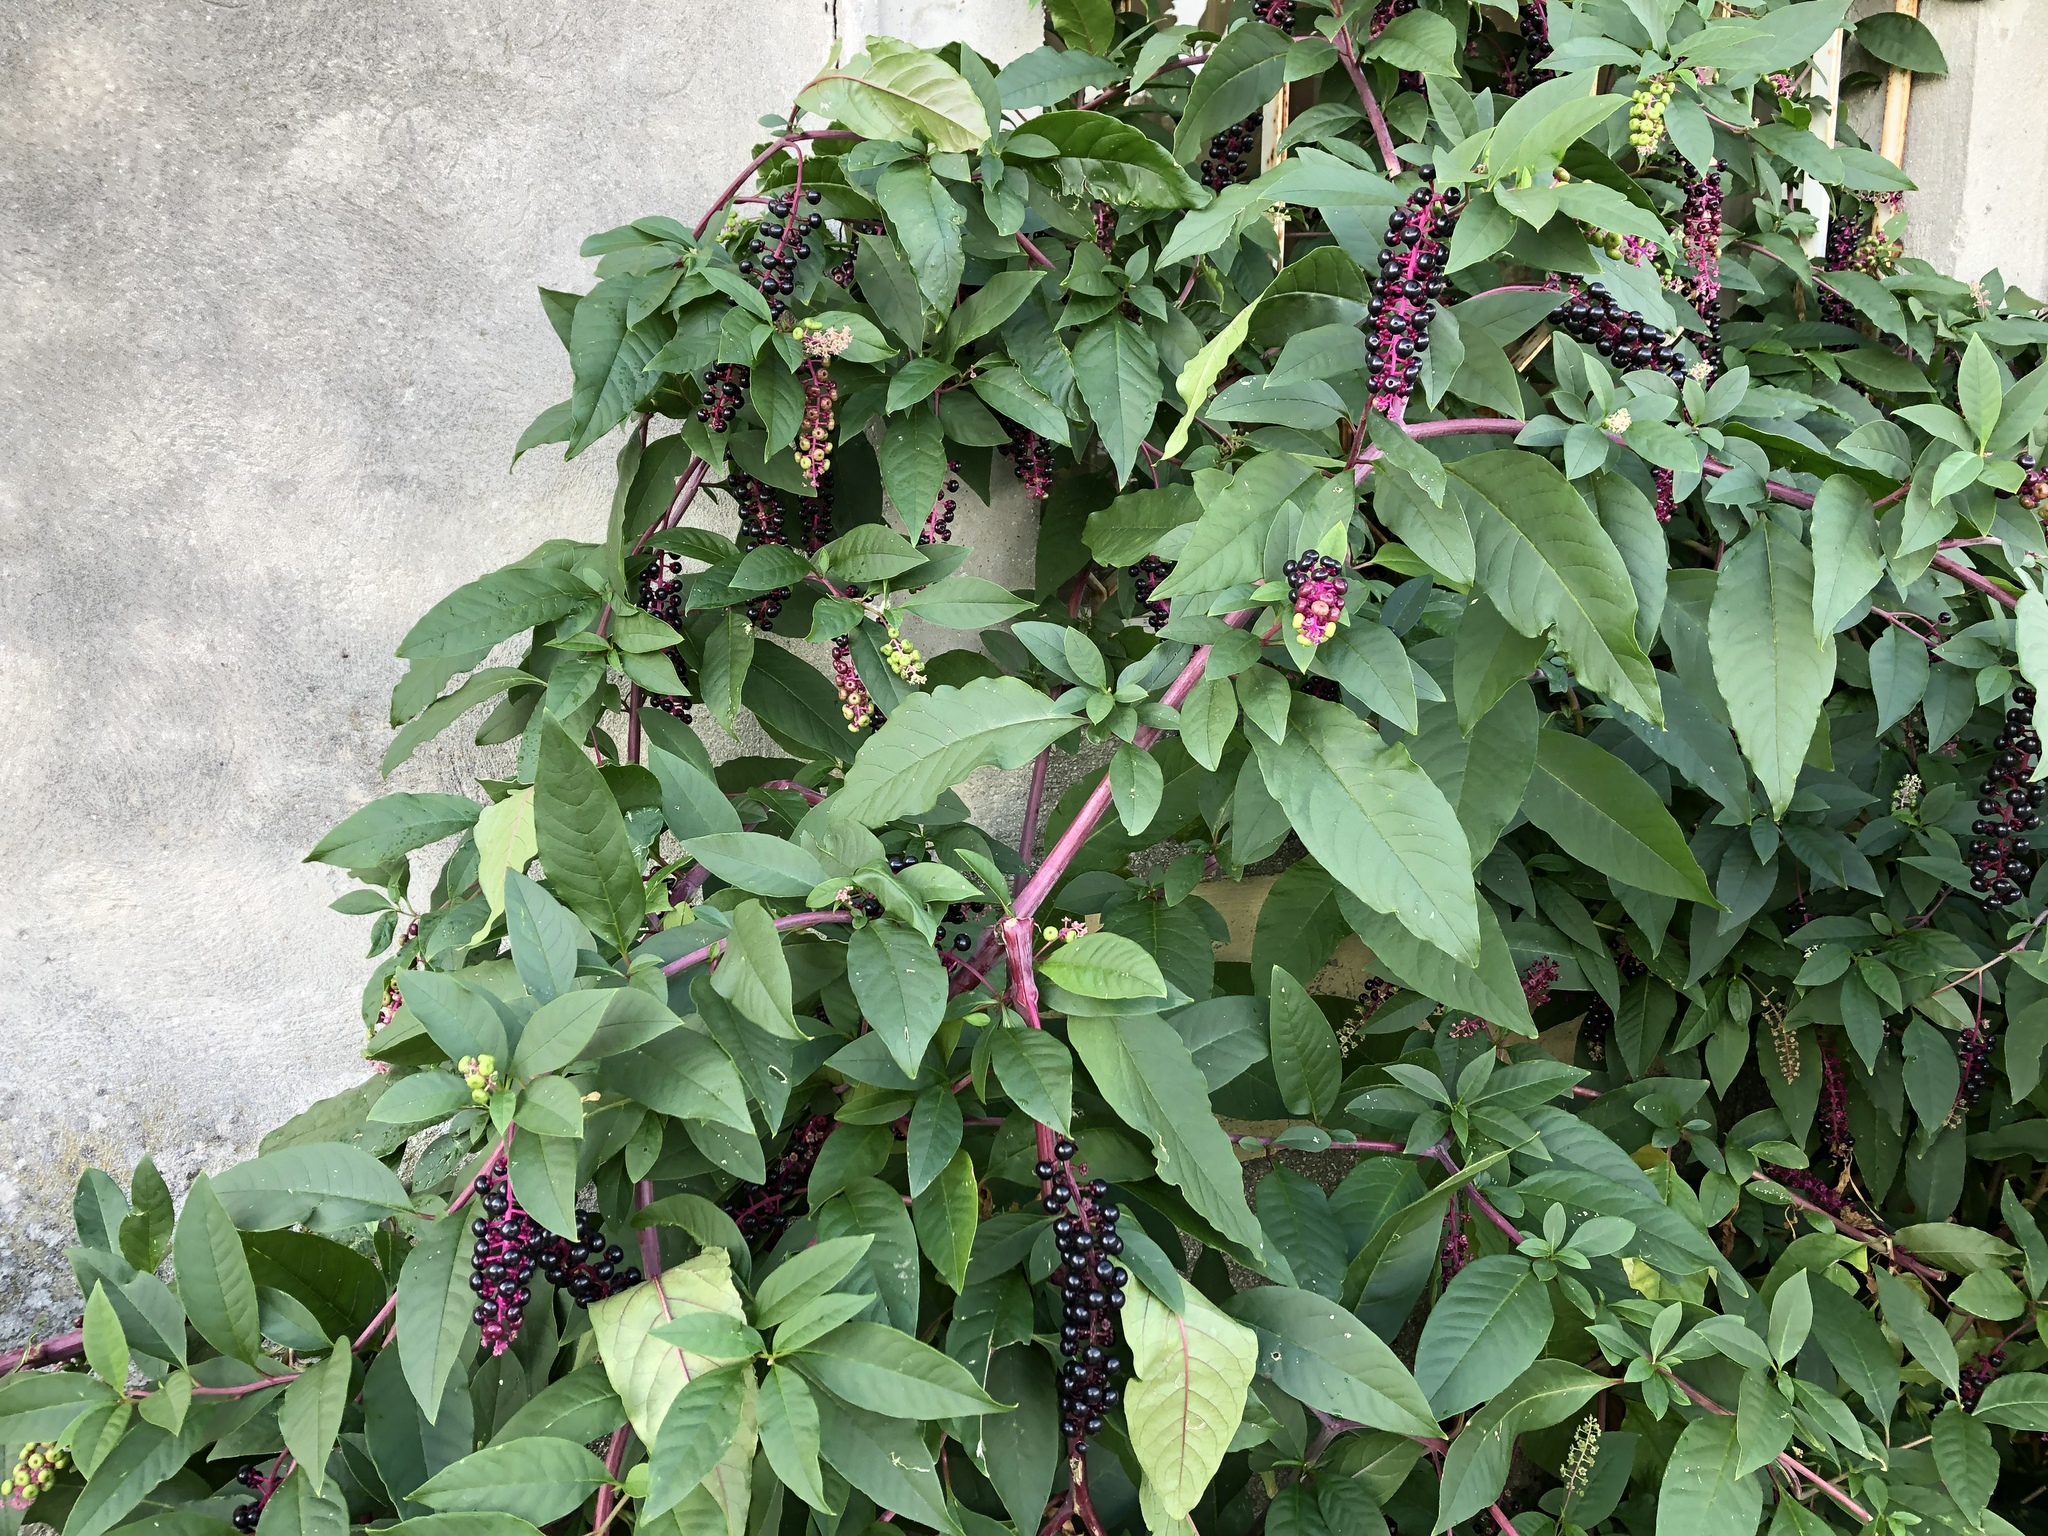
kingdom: Plantae
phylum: Tracheophyta
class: Magnoliopsida
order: Caryophyllales
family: Phytolaccaceae
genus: Phytolacca
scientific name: Phytolacca americana
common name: American pokeweed
